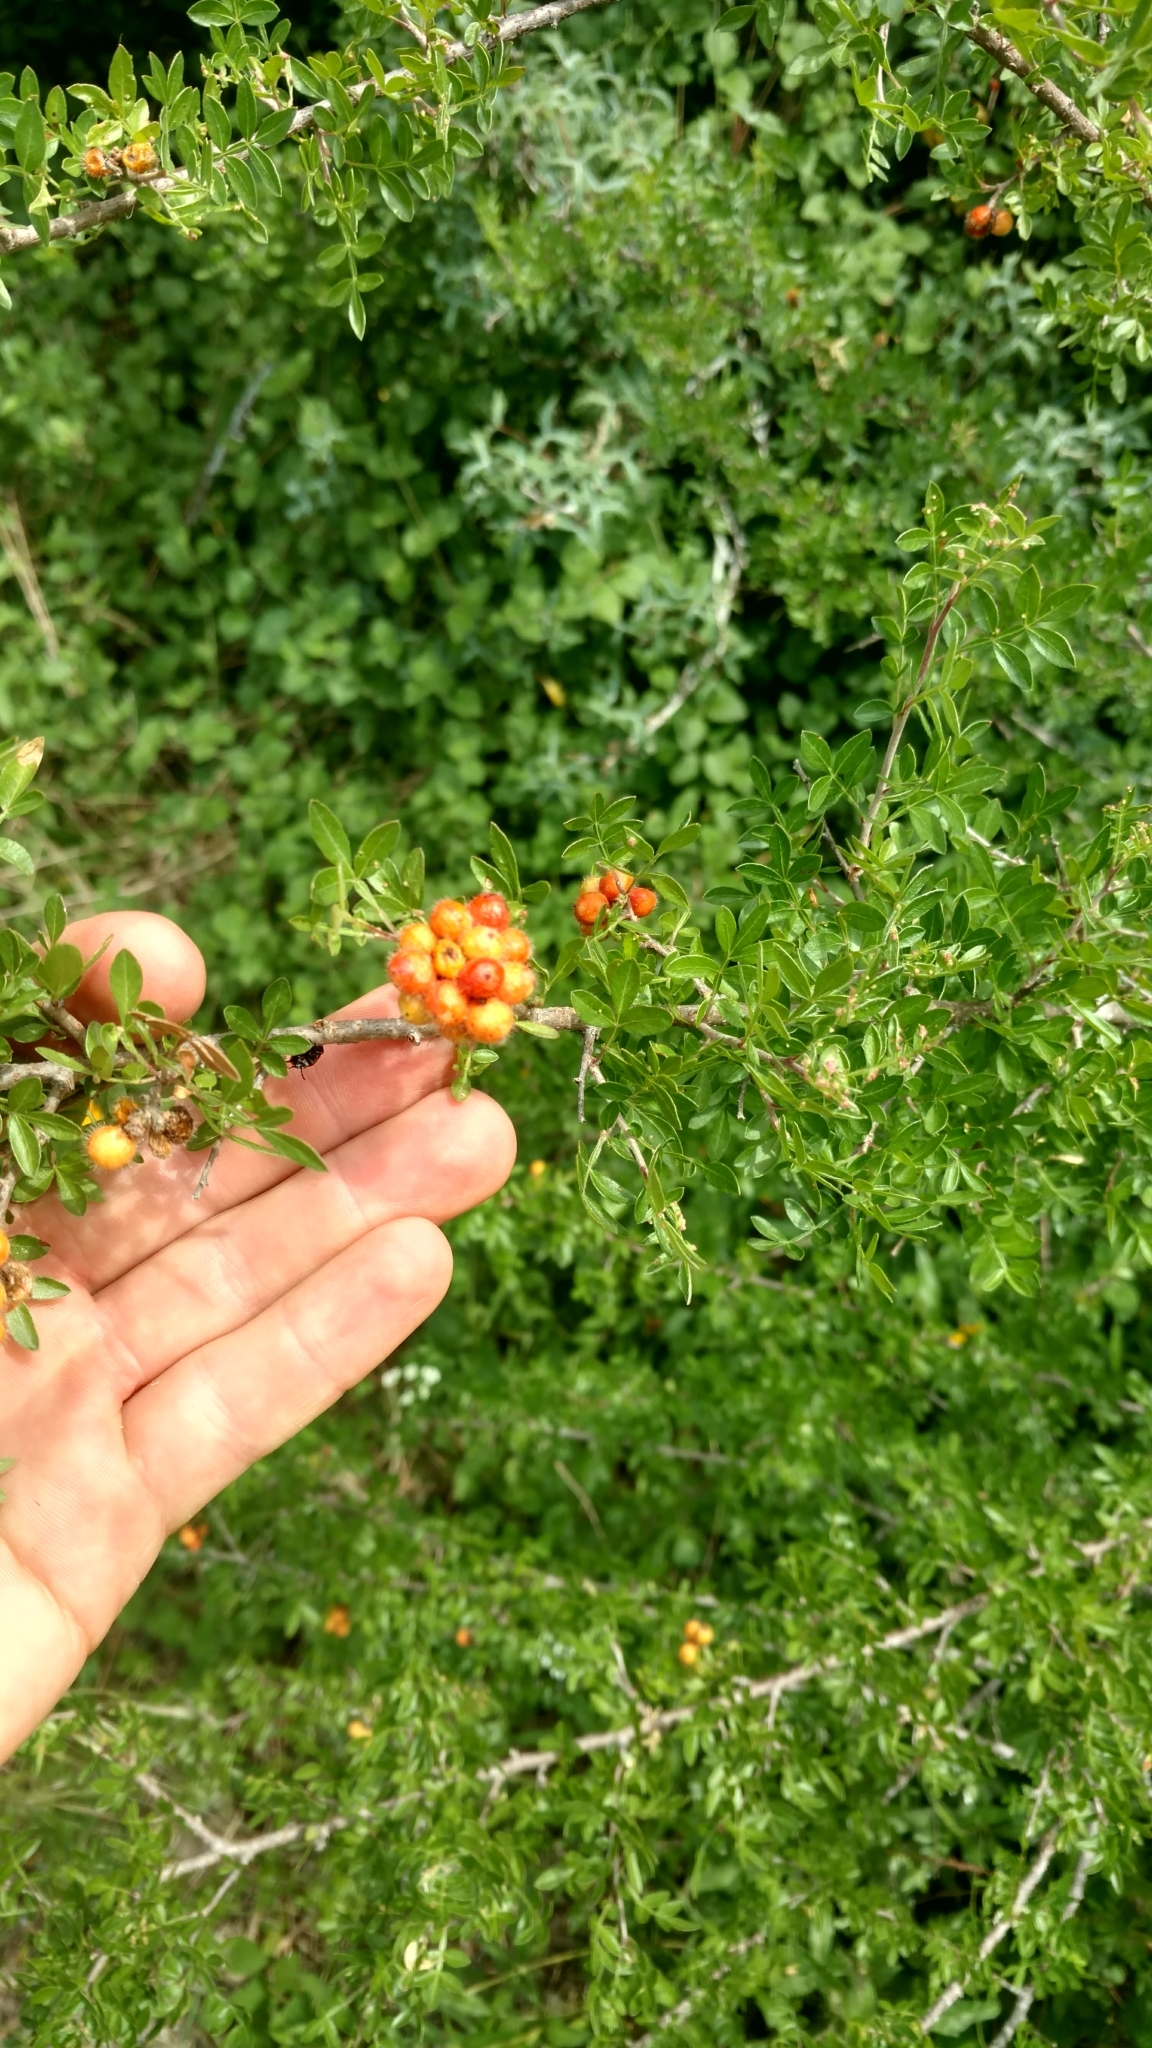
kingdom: Plantae
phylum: Tracheophyta
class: Magnoliopsida
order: Sapindales
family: Anacardiaceae
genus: Rhus
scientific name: Rhus microphylla
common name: Desert sumac
